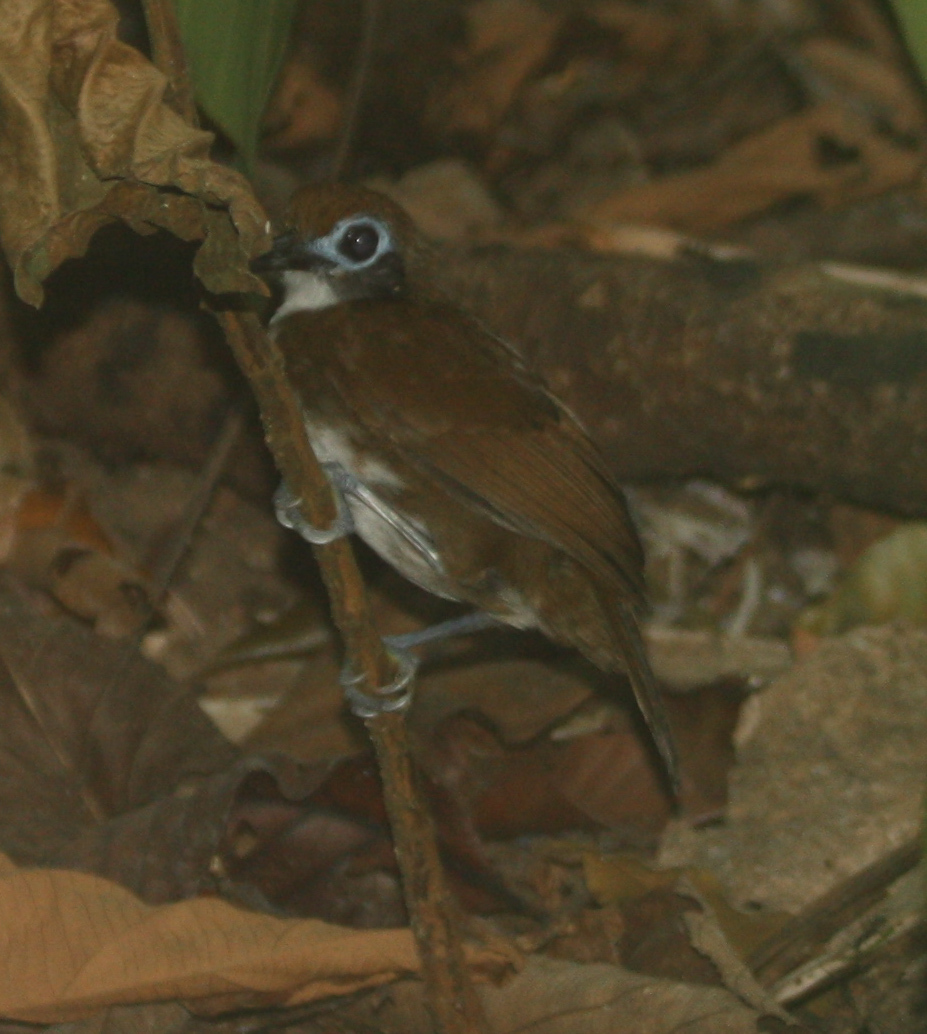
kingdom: Animalia
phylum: Chordata
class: Aves
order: Passeriformes
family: Thamnophilidae
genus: Gymnopithys
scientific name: Gymnopithys leucaspis
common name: White-cheeked antbird
